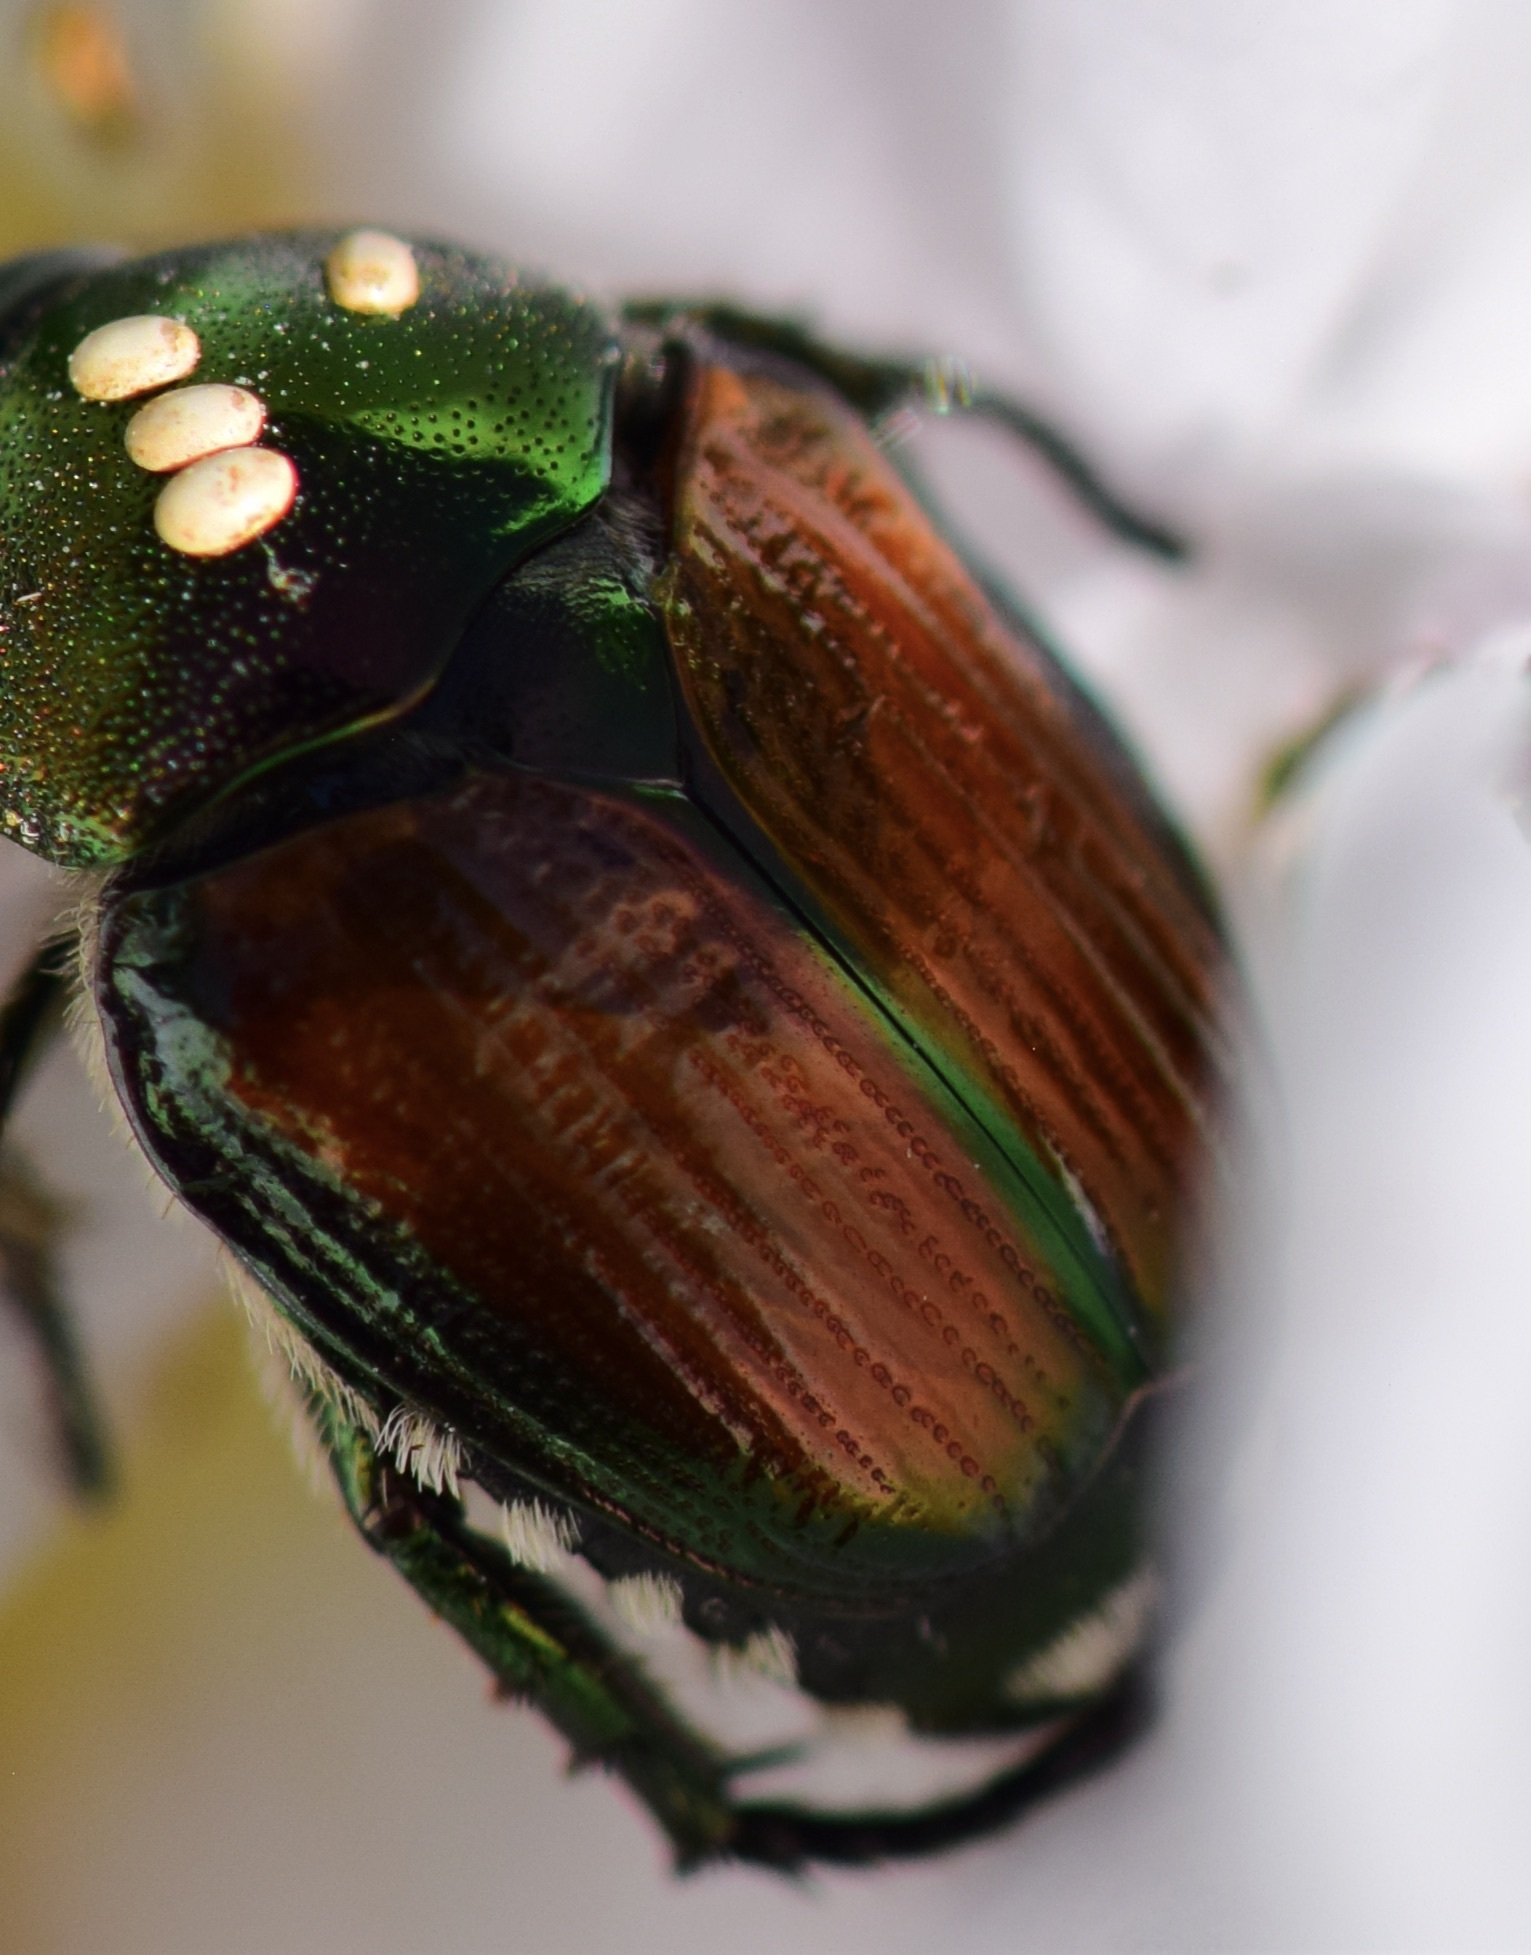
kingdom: Animalia
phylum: Arthropoda
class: Insecta
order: Coleoptera
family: Scarabaeidae
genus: Popillia
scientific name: Popillia japonica
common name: Japanese beetle
